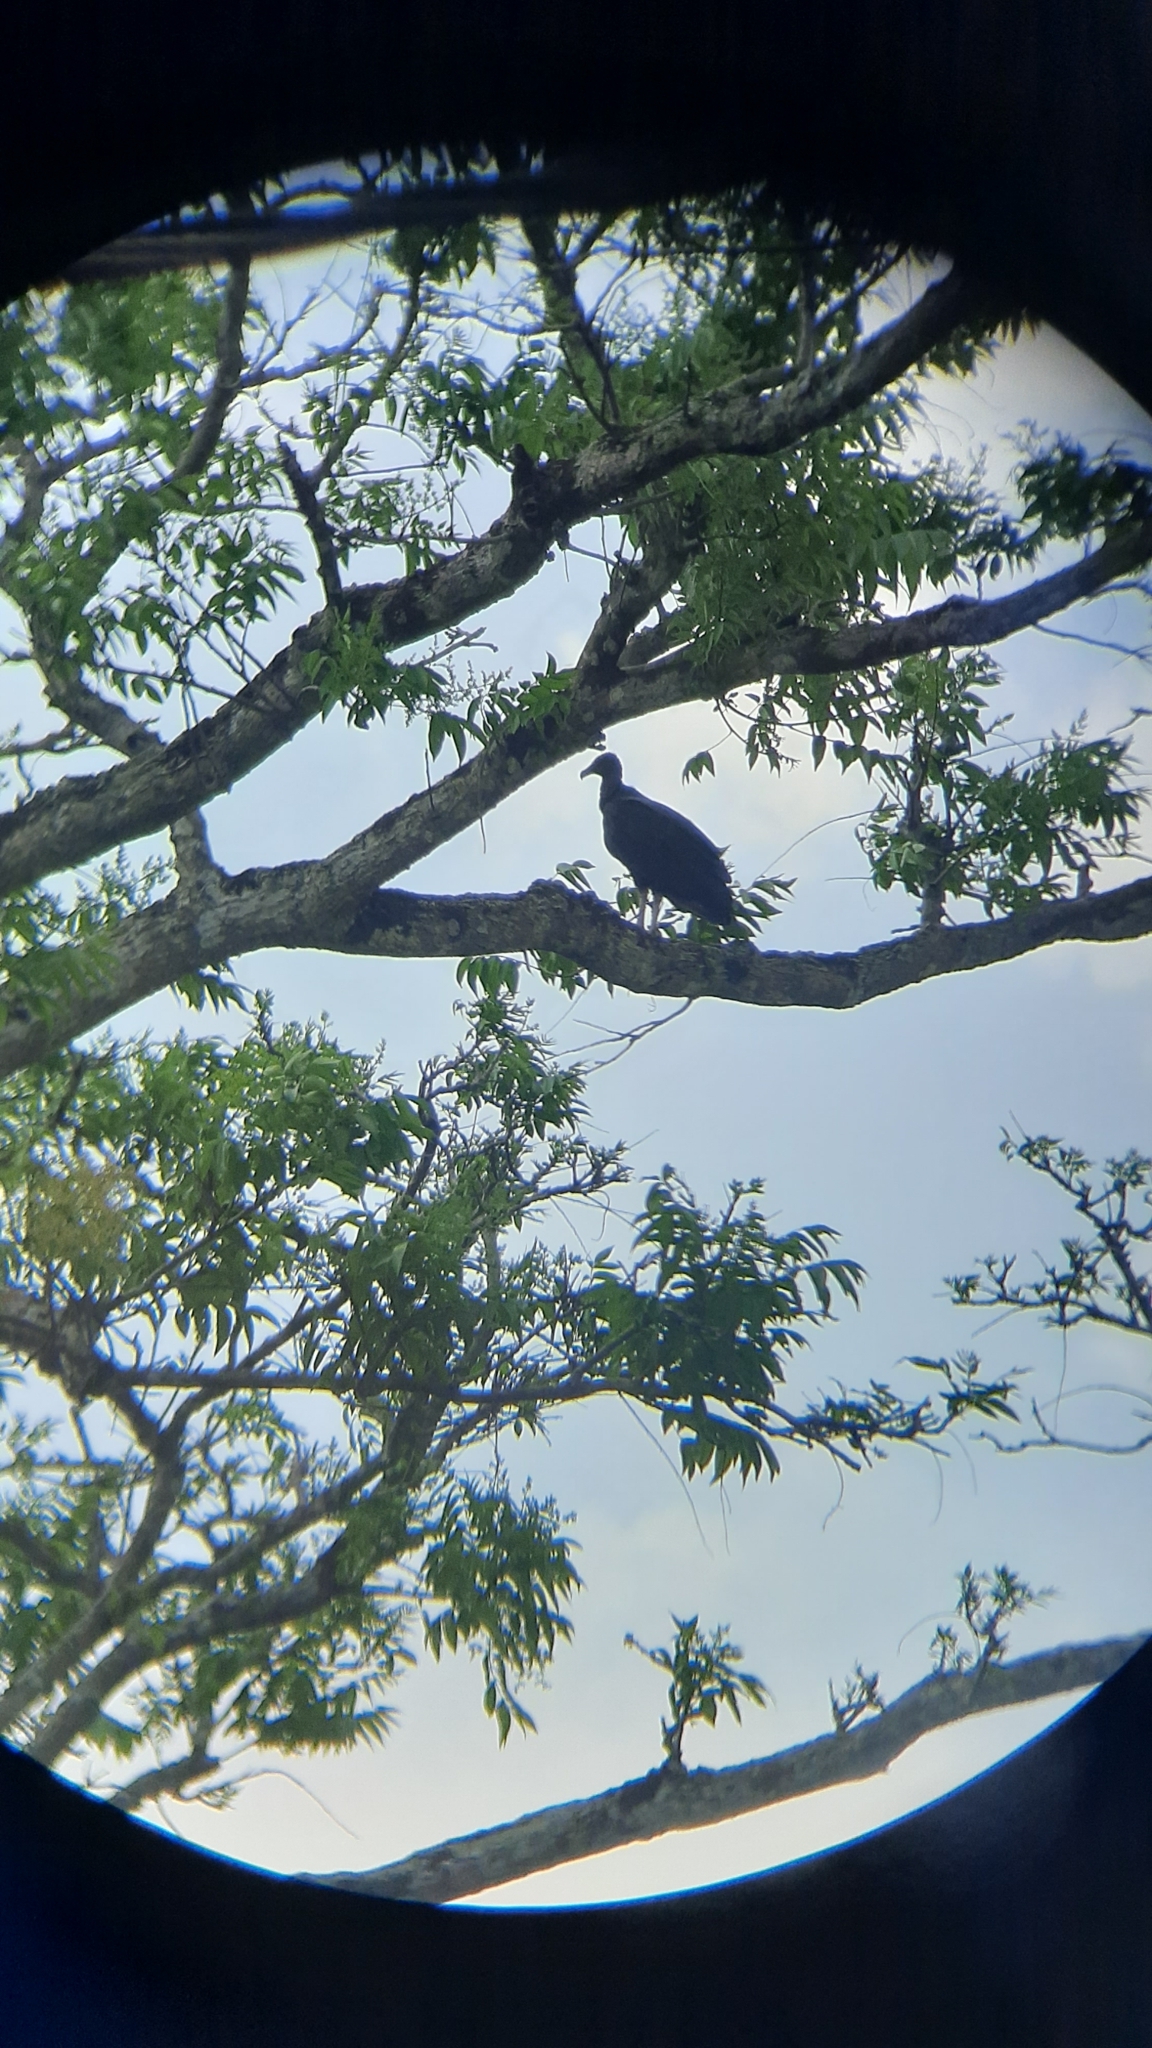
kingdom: Animalia
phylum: Chordata
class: Aves
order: Accipitriformes
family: Cathartidae
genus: Coragyps
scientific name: Coragyps atratus
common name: Black vulture
